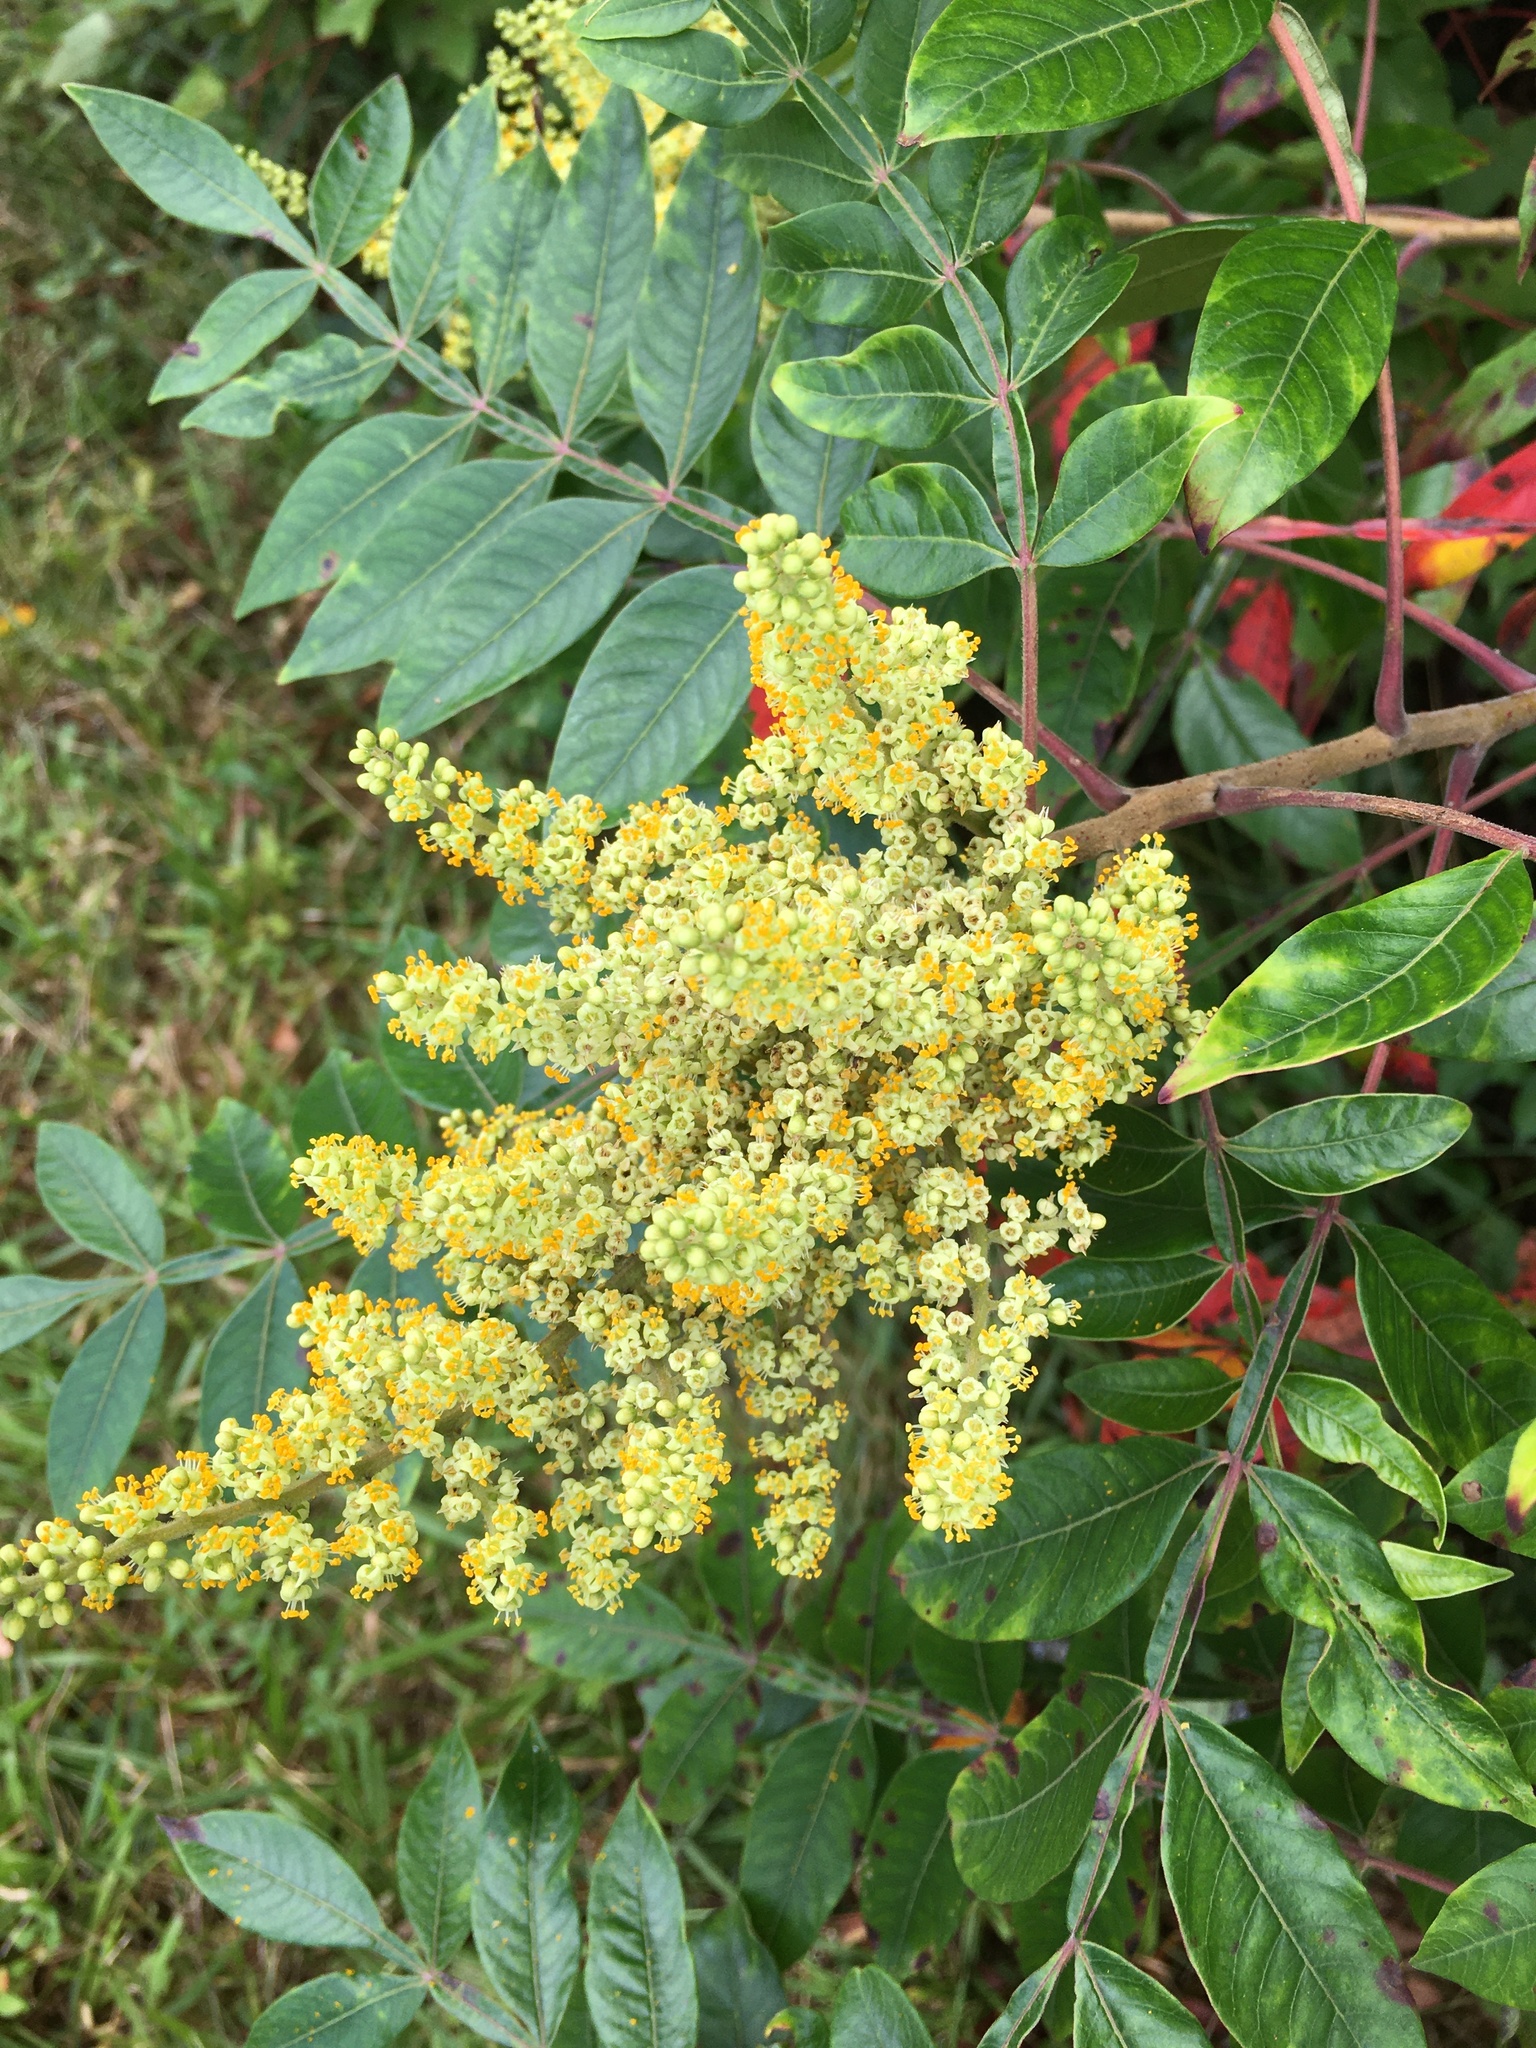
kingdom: Plantae
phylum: Tracheophyta
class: Magnoliopsida
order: Sapindales
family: Anacardiaceae
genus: Rhus
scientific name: Rhus copallina
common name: Shining sumac
